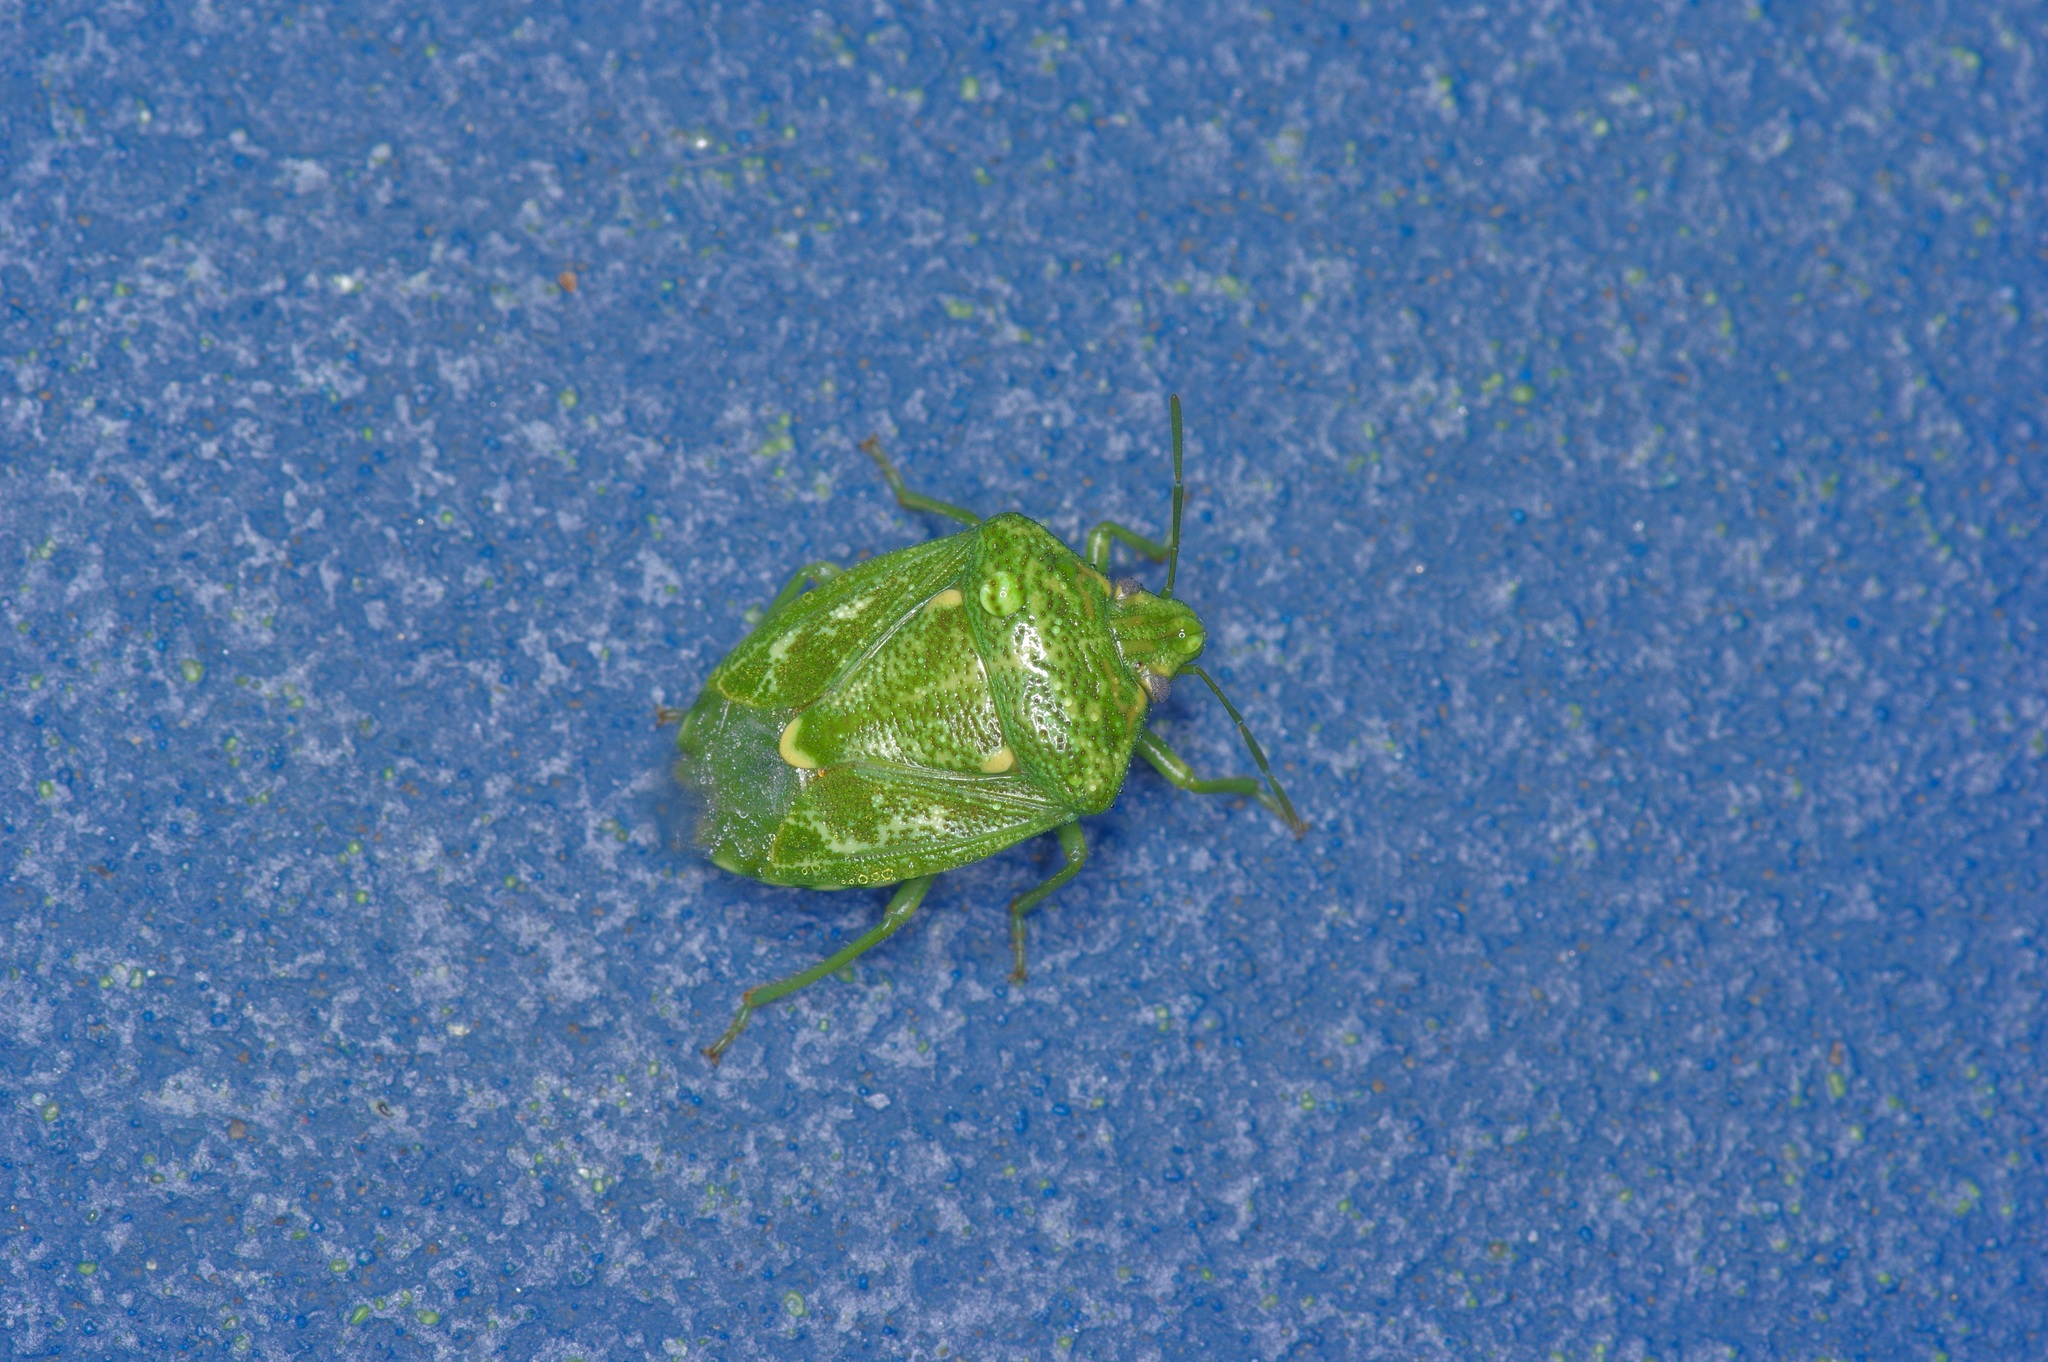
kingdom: Animalia
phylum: Arthropoda
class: Insecta
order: Hemiptera
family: Pentatomidae
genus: Banasa
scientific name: Banasa euchlora
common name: Cedar berry bug
